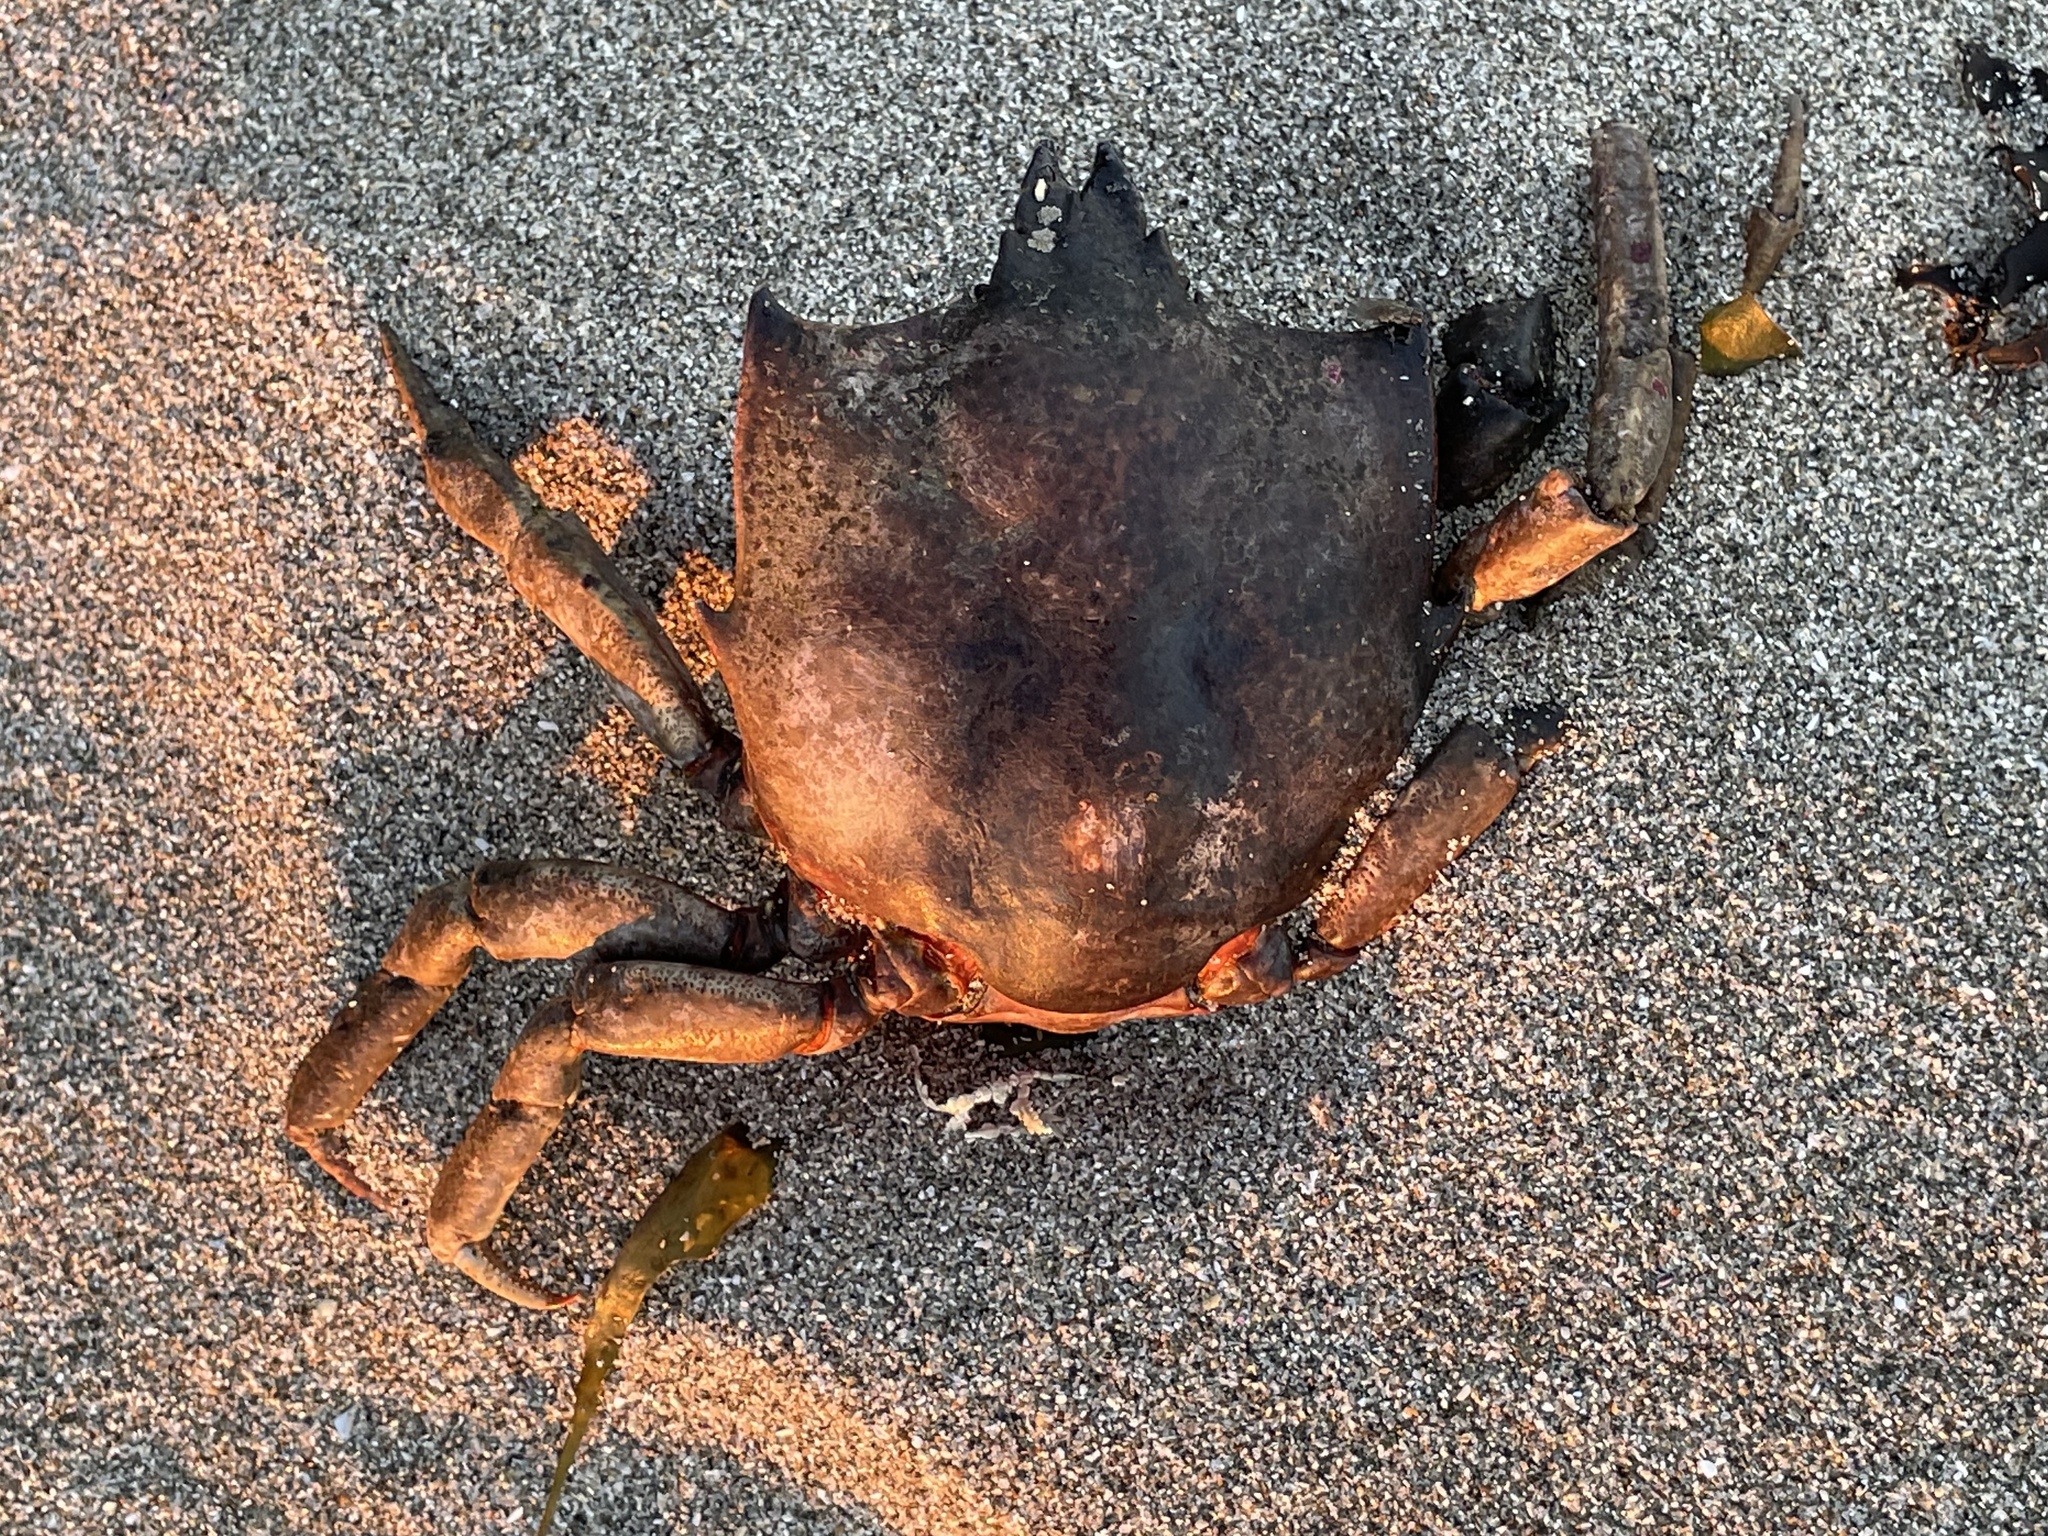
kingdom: Animalia
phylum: Arthropoda
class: Malacostraca
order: Decapoda
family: Epialtidae
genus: Pugettia
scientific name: Pugettia producta
